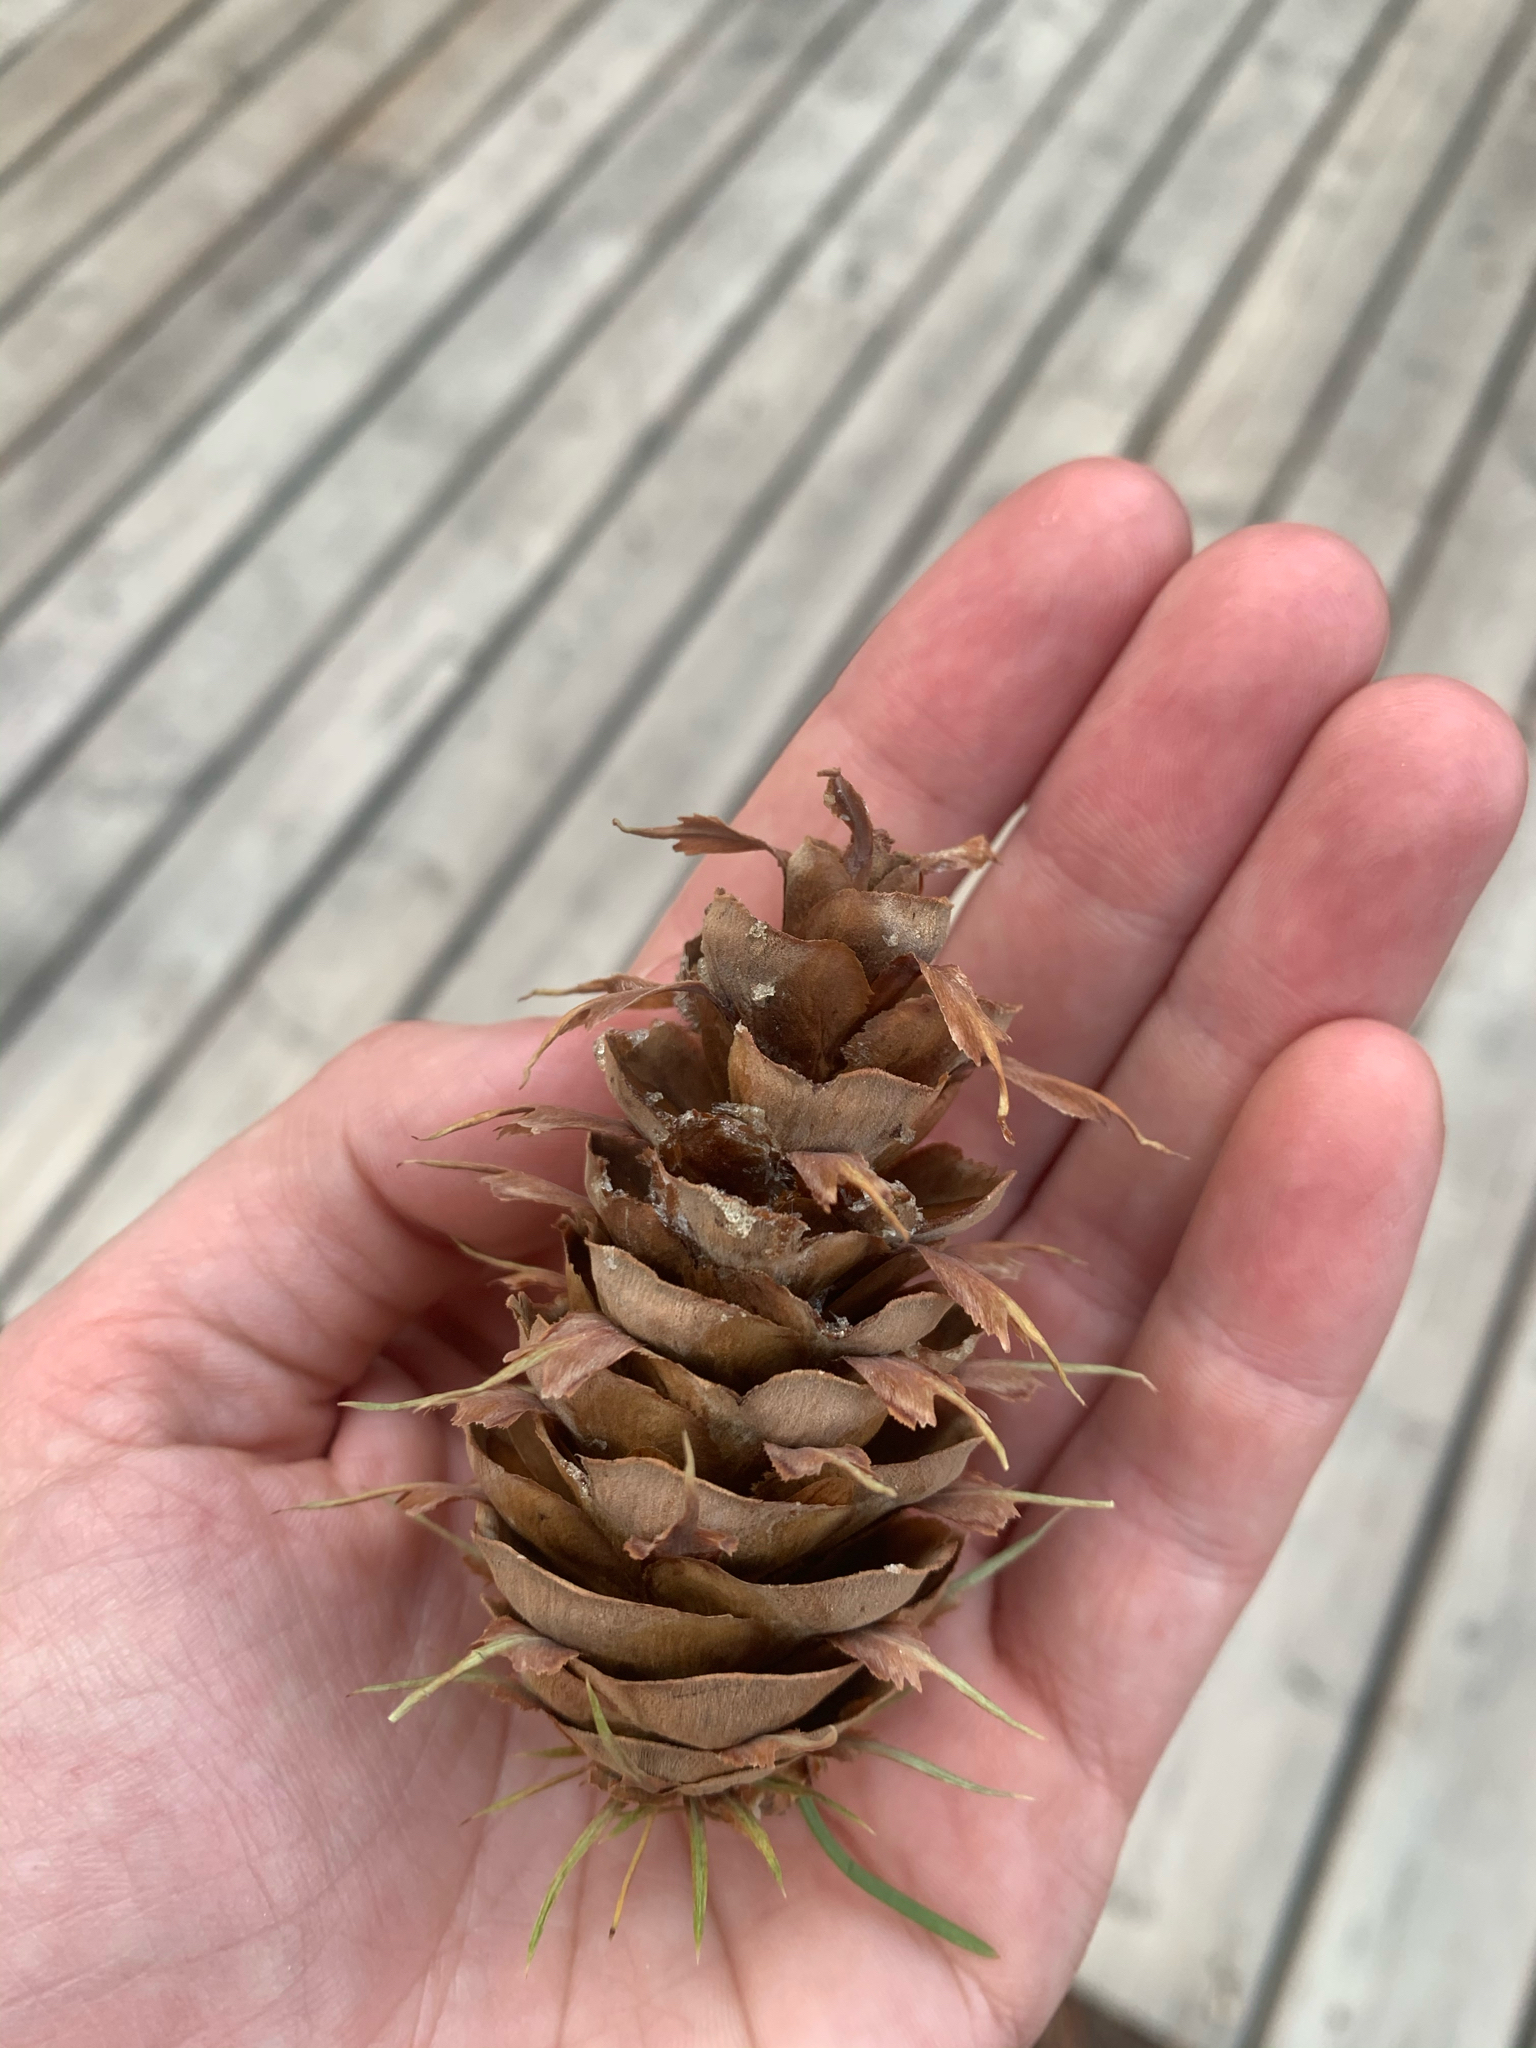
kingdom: Plantae
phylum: Tracheophyta
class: Pinopsida
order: Pinales
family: Pinaceae
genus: Pseudotsuga
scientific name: Pseudotsuga menziesii
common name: Douglas fir
